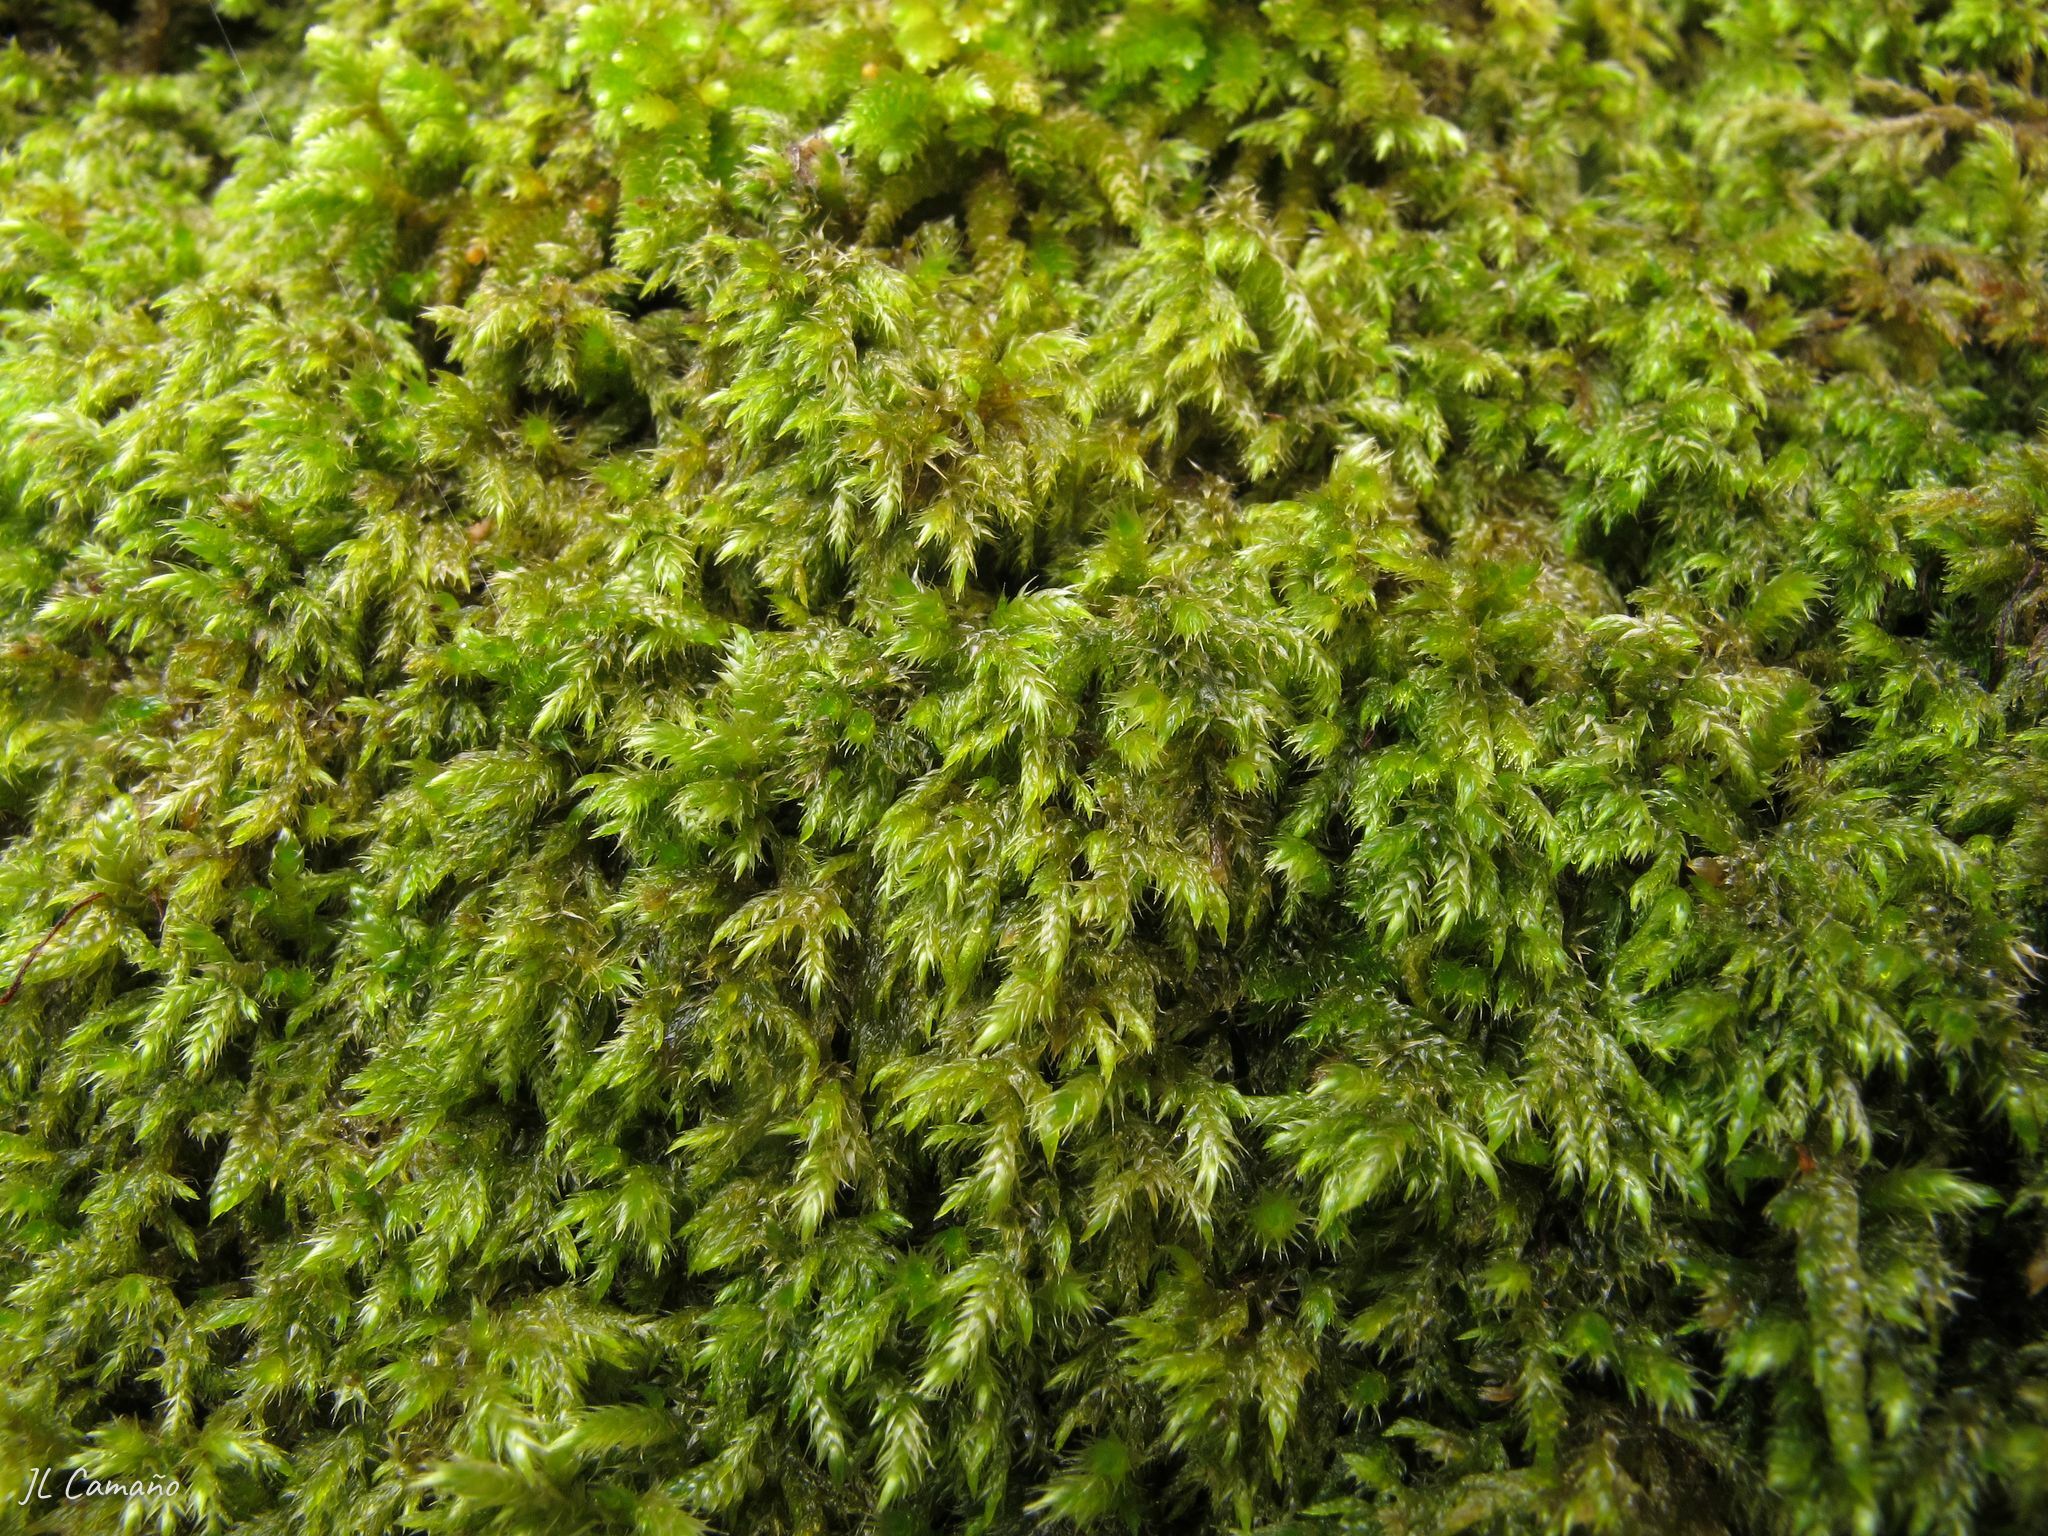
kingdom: Plantae
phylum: Bryophyta
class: Bryopsida
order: Hypnales
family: Lembophyllaceae
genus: Pseudisothecium
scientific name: Pseudisothecium myosuroides
